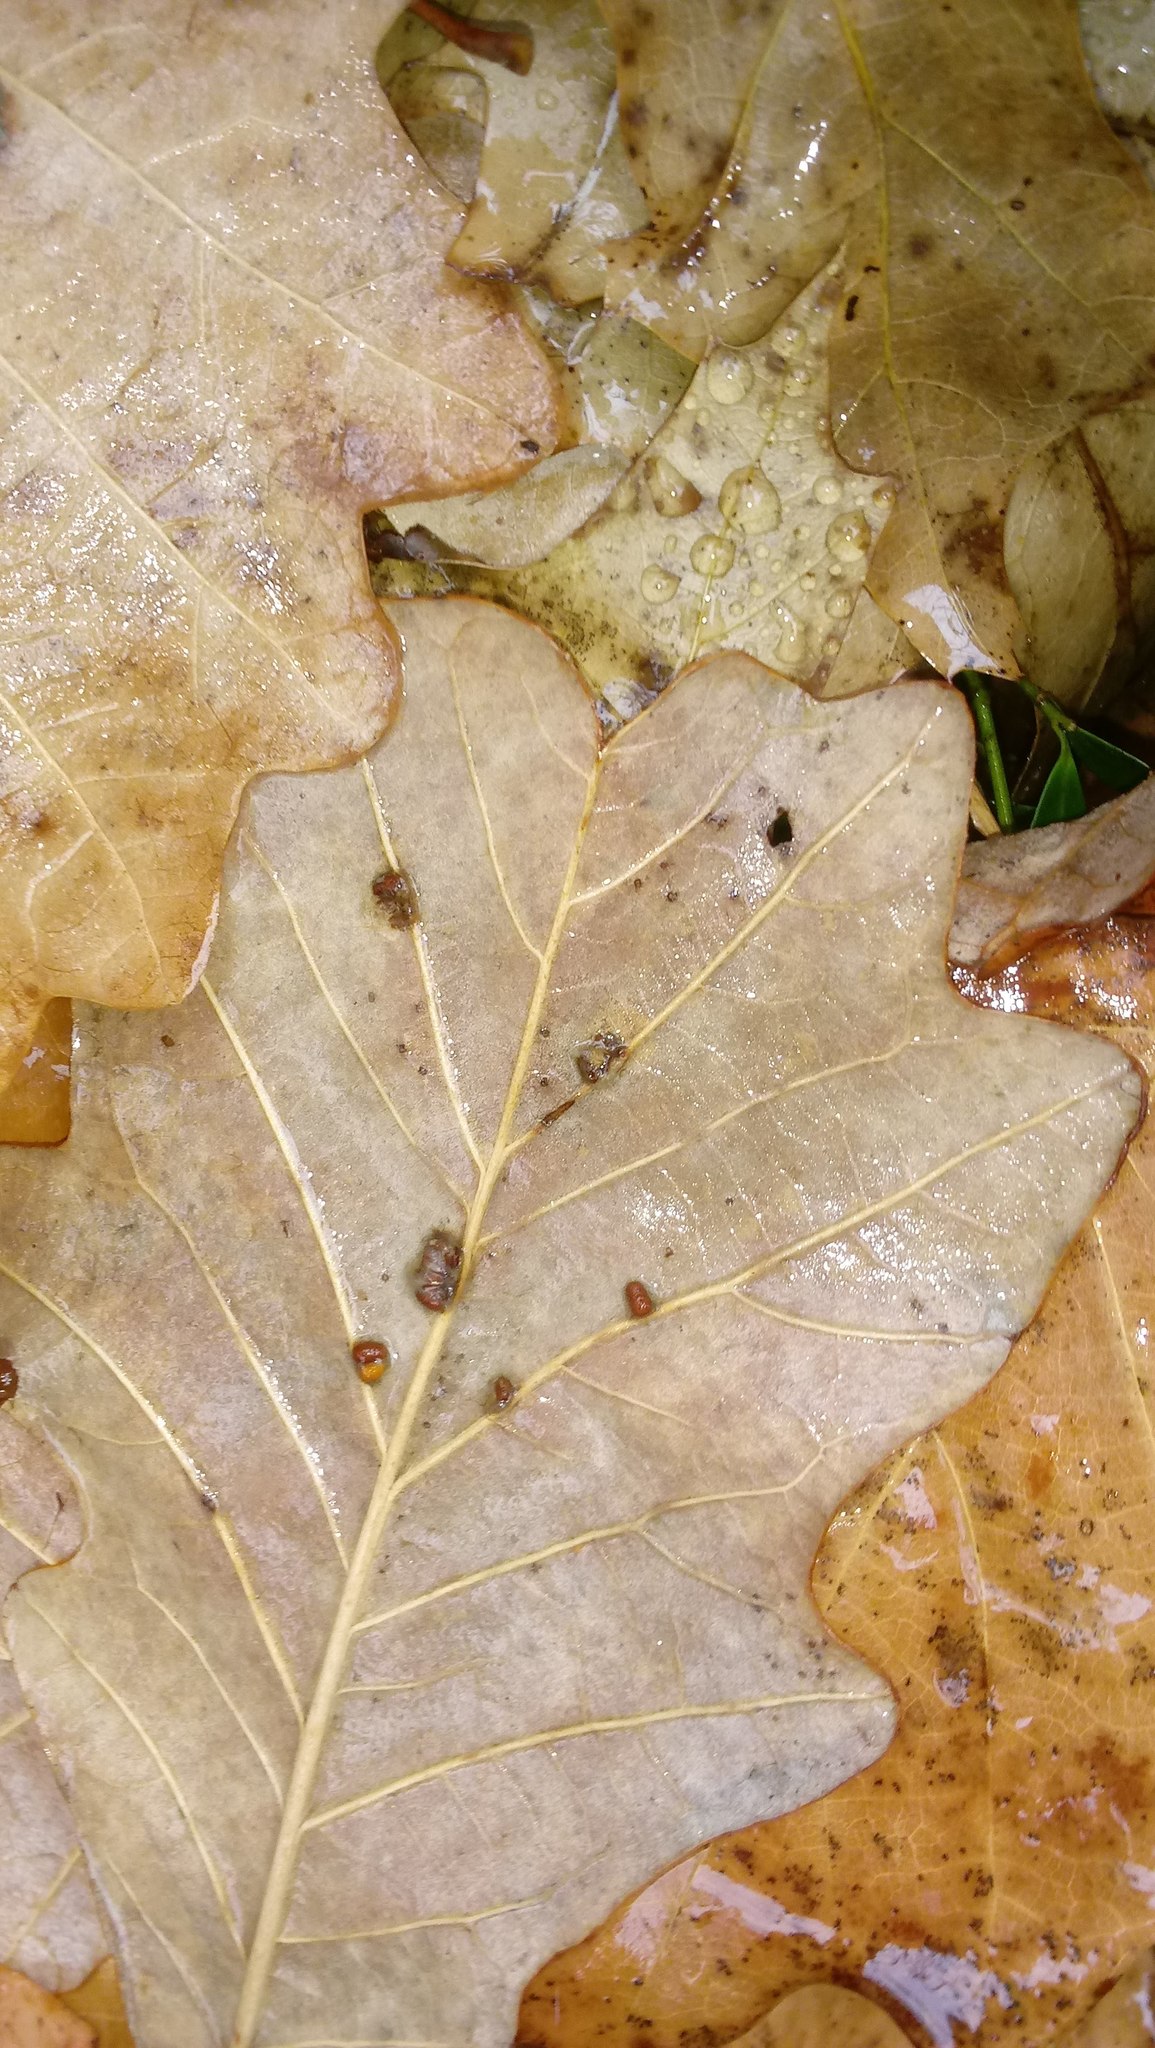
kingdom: Animalia
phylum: Arthropoda
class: Insecta
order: Hymenoptera
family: Cynipidae
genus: Andricus
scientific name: Andricus Druon ignotum
